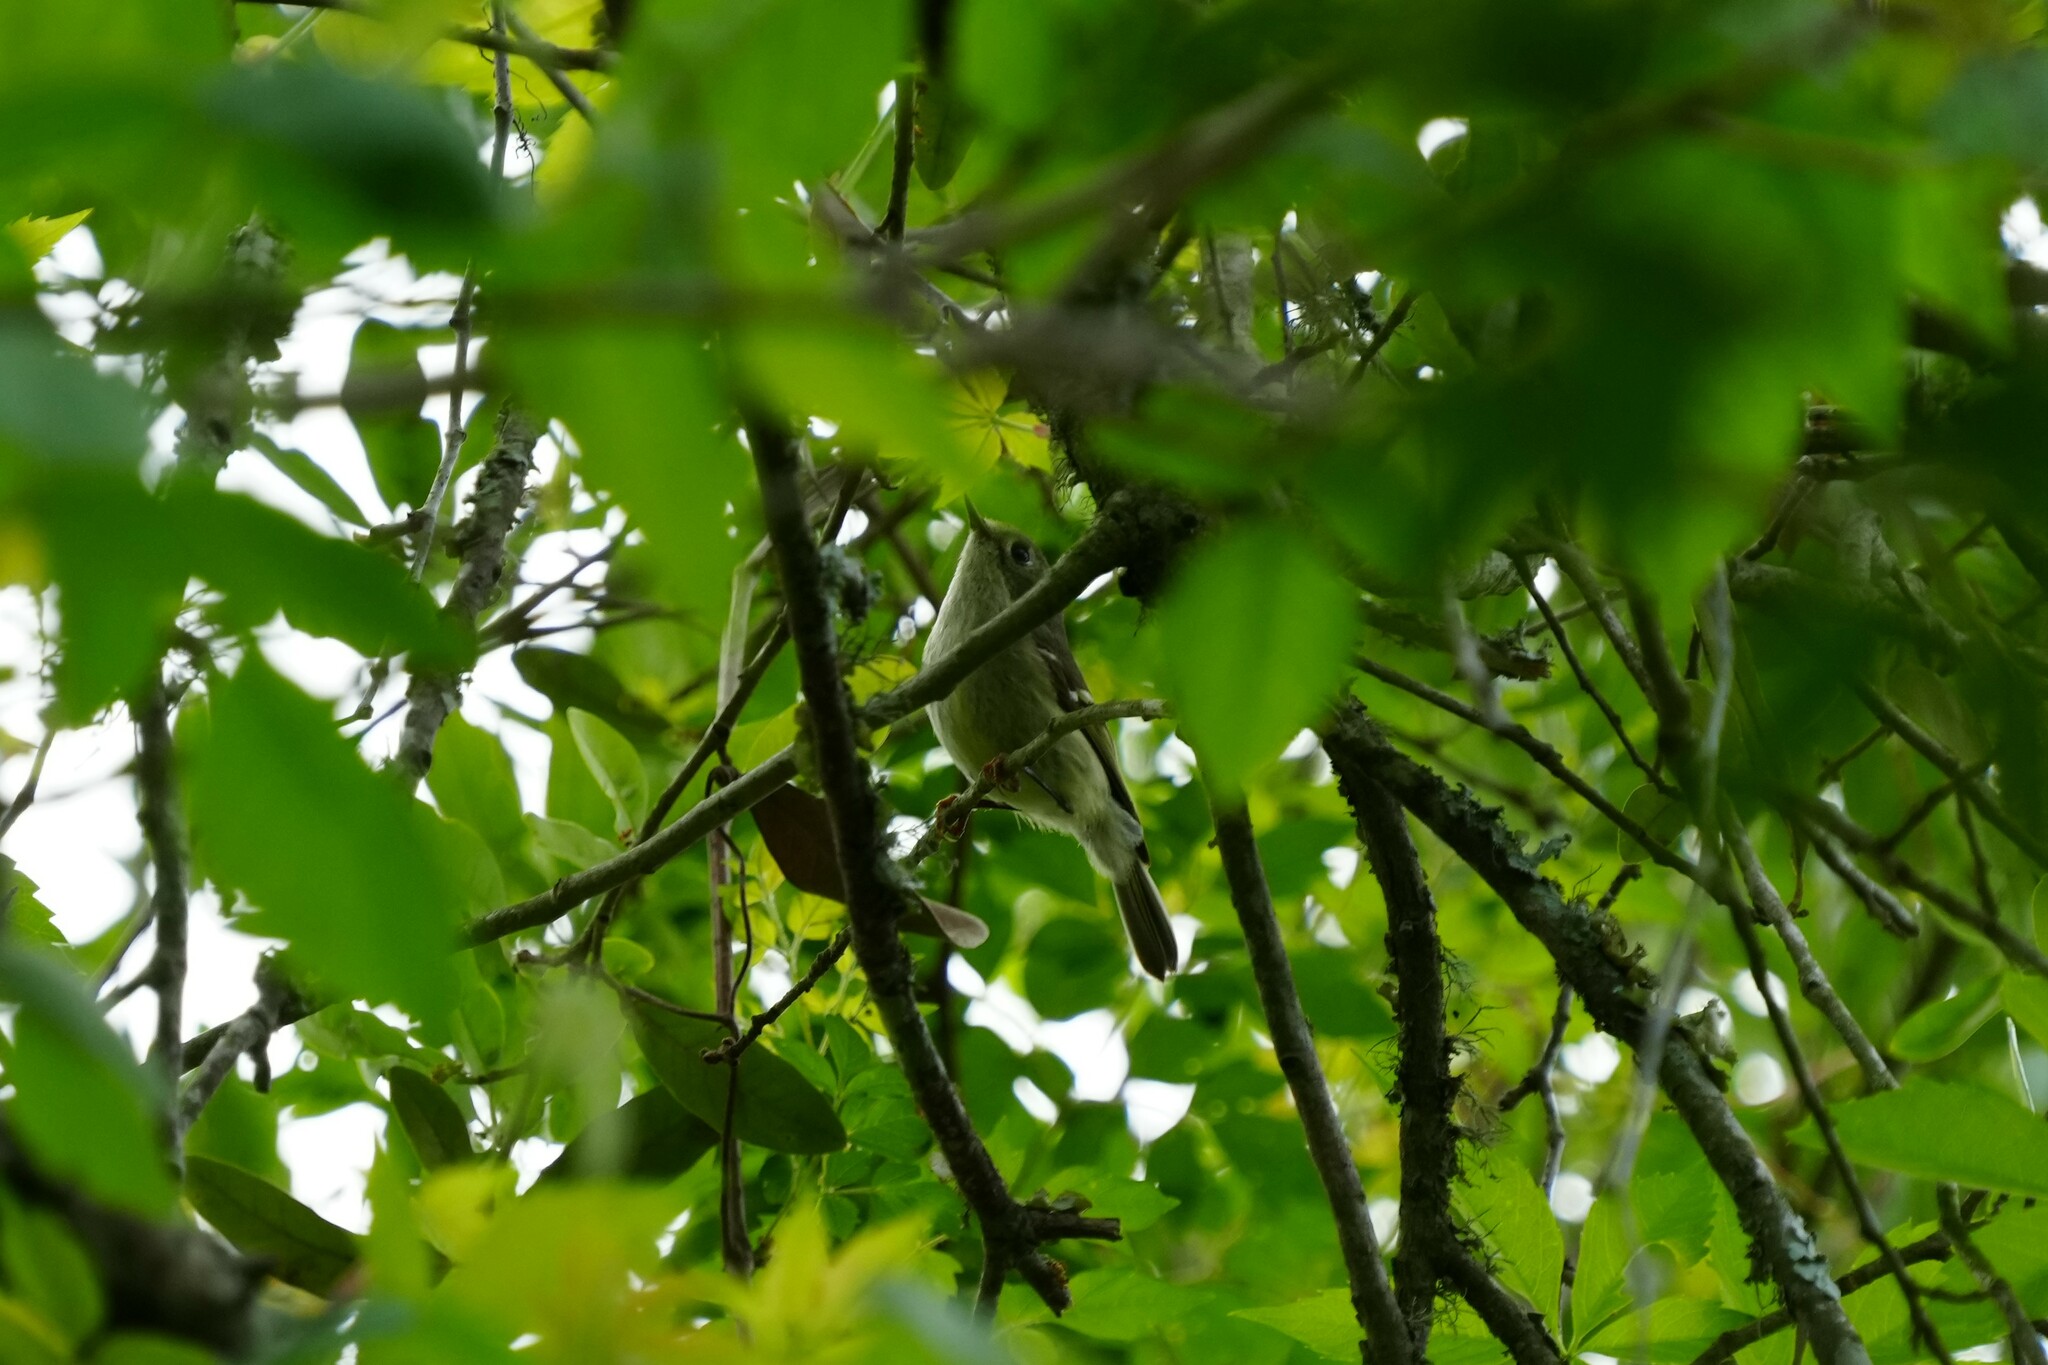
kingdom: Animalia
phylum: Chordata
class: Aves
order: Passeriformes
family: Regulidae
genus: Regulus
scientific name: Regulus calendula
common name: Ruby-crowned kinglet
